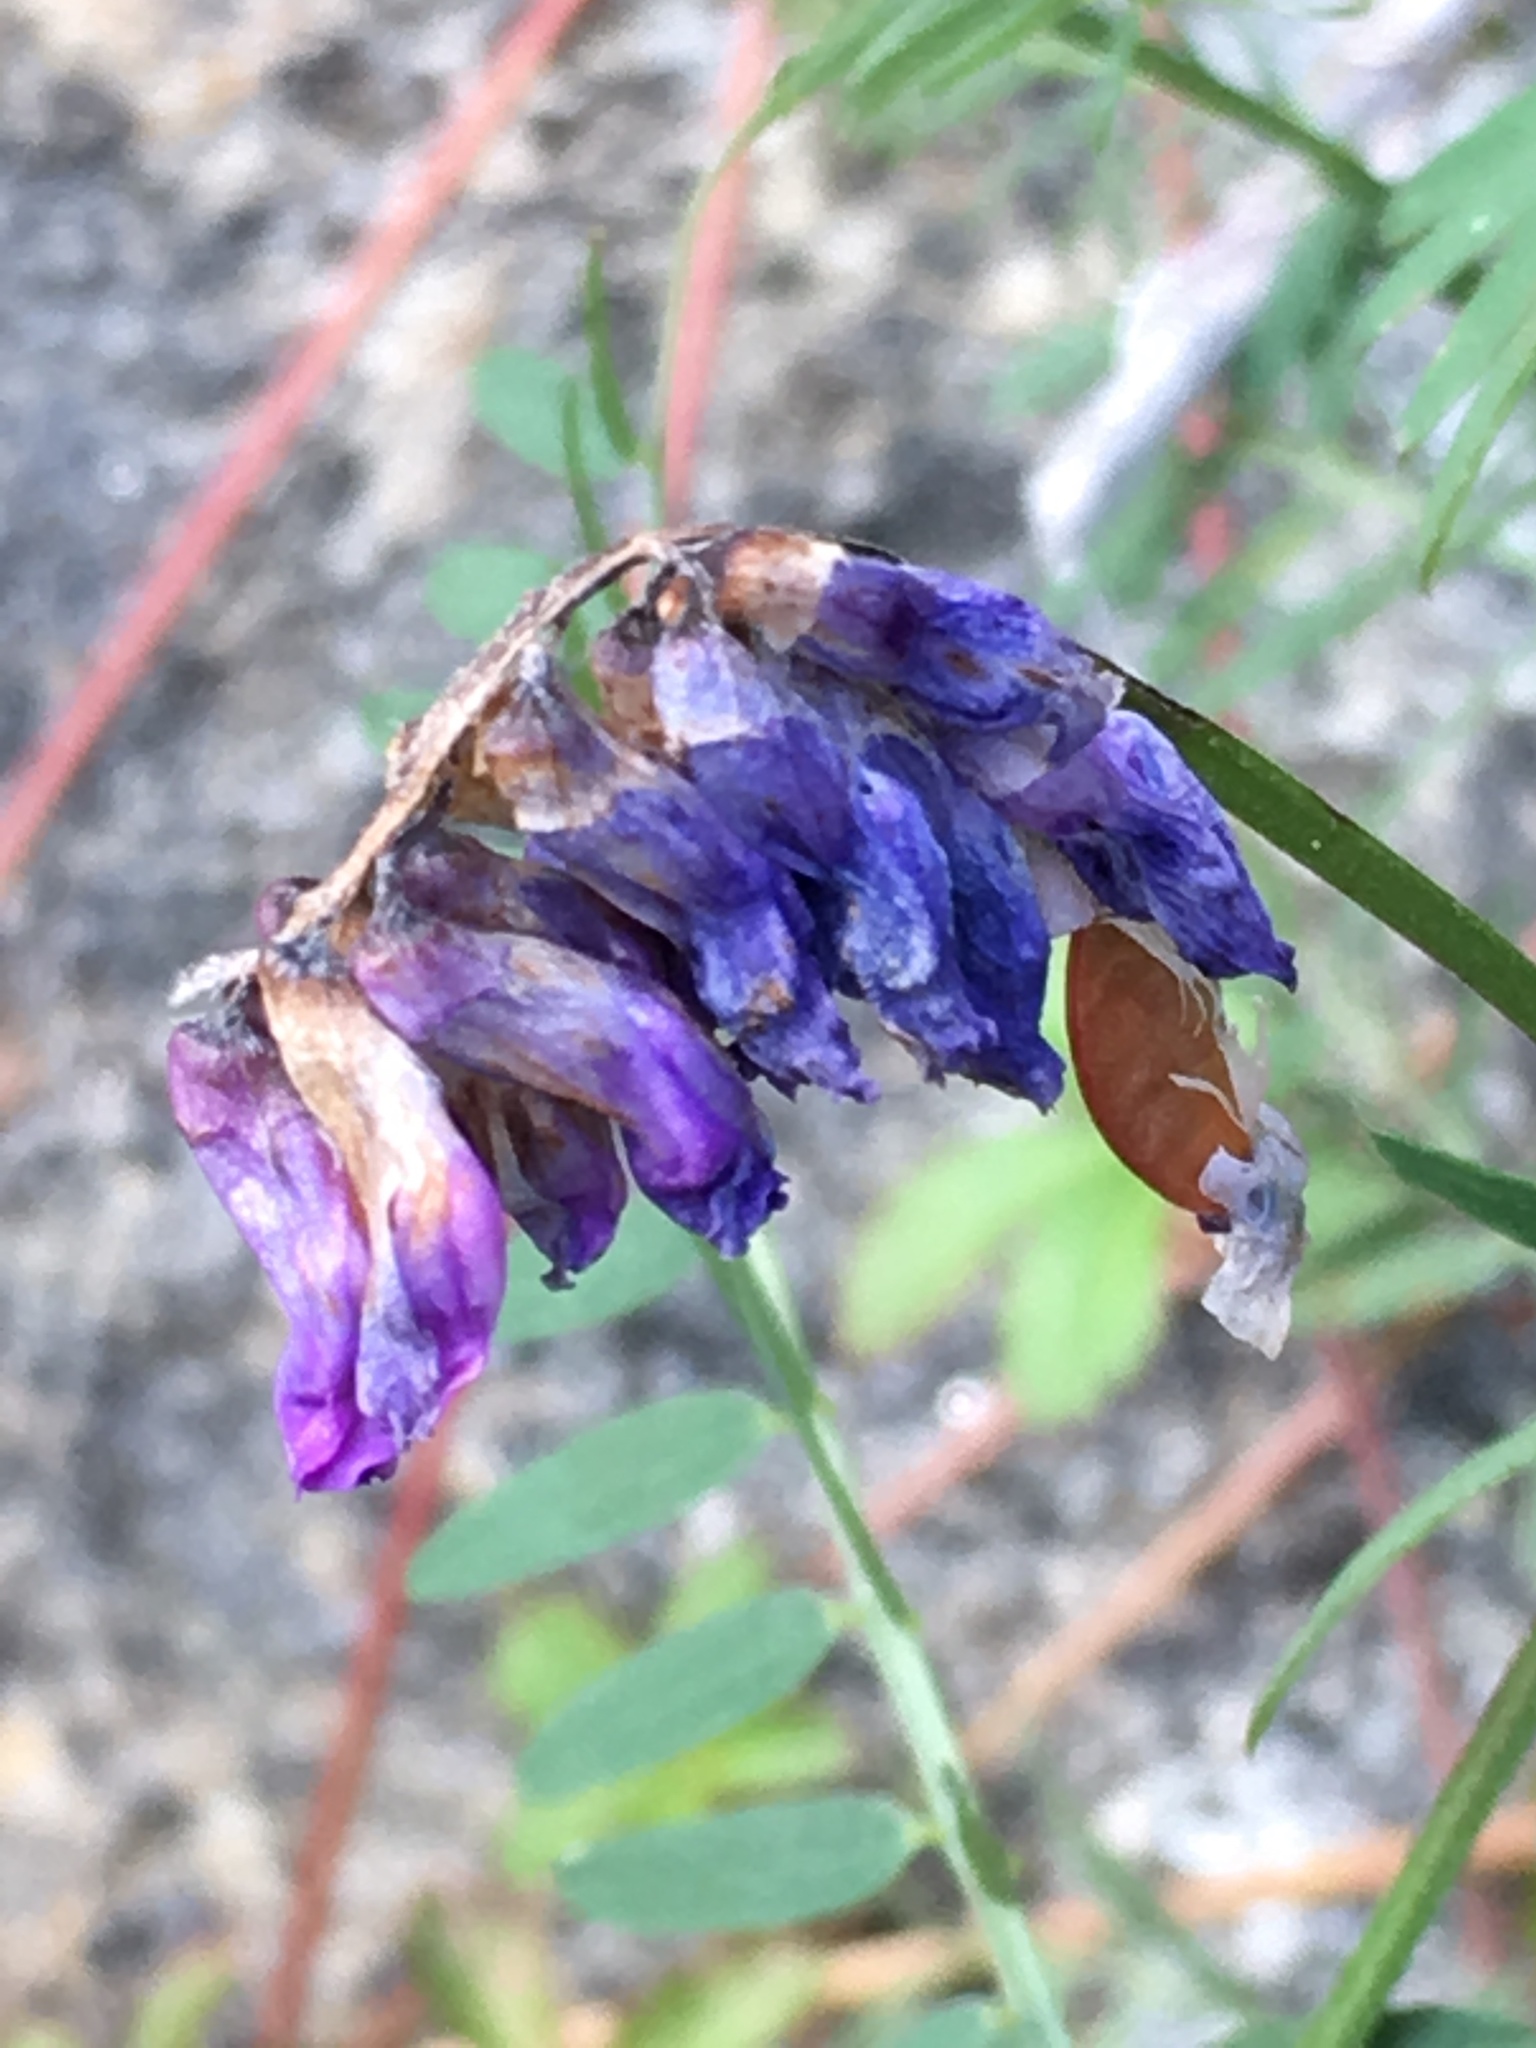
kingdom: Plantae
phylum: Tracheophyta
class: Magnoliopsida
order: Fabales
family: Fabaceae
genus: Vicia
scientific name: Vicia cracca
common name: Bird vetch
